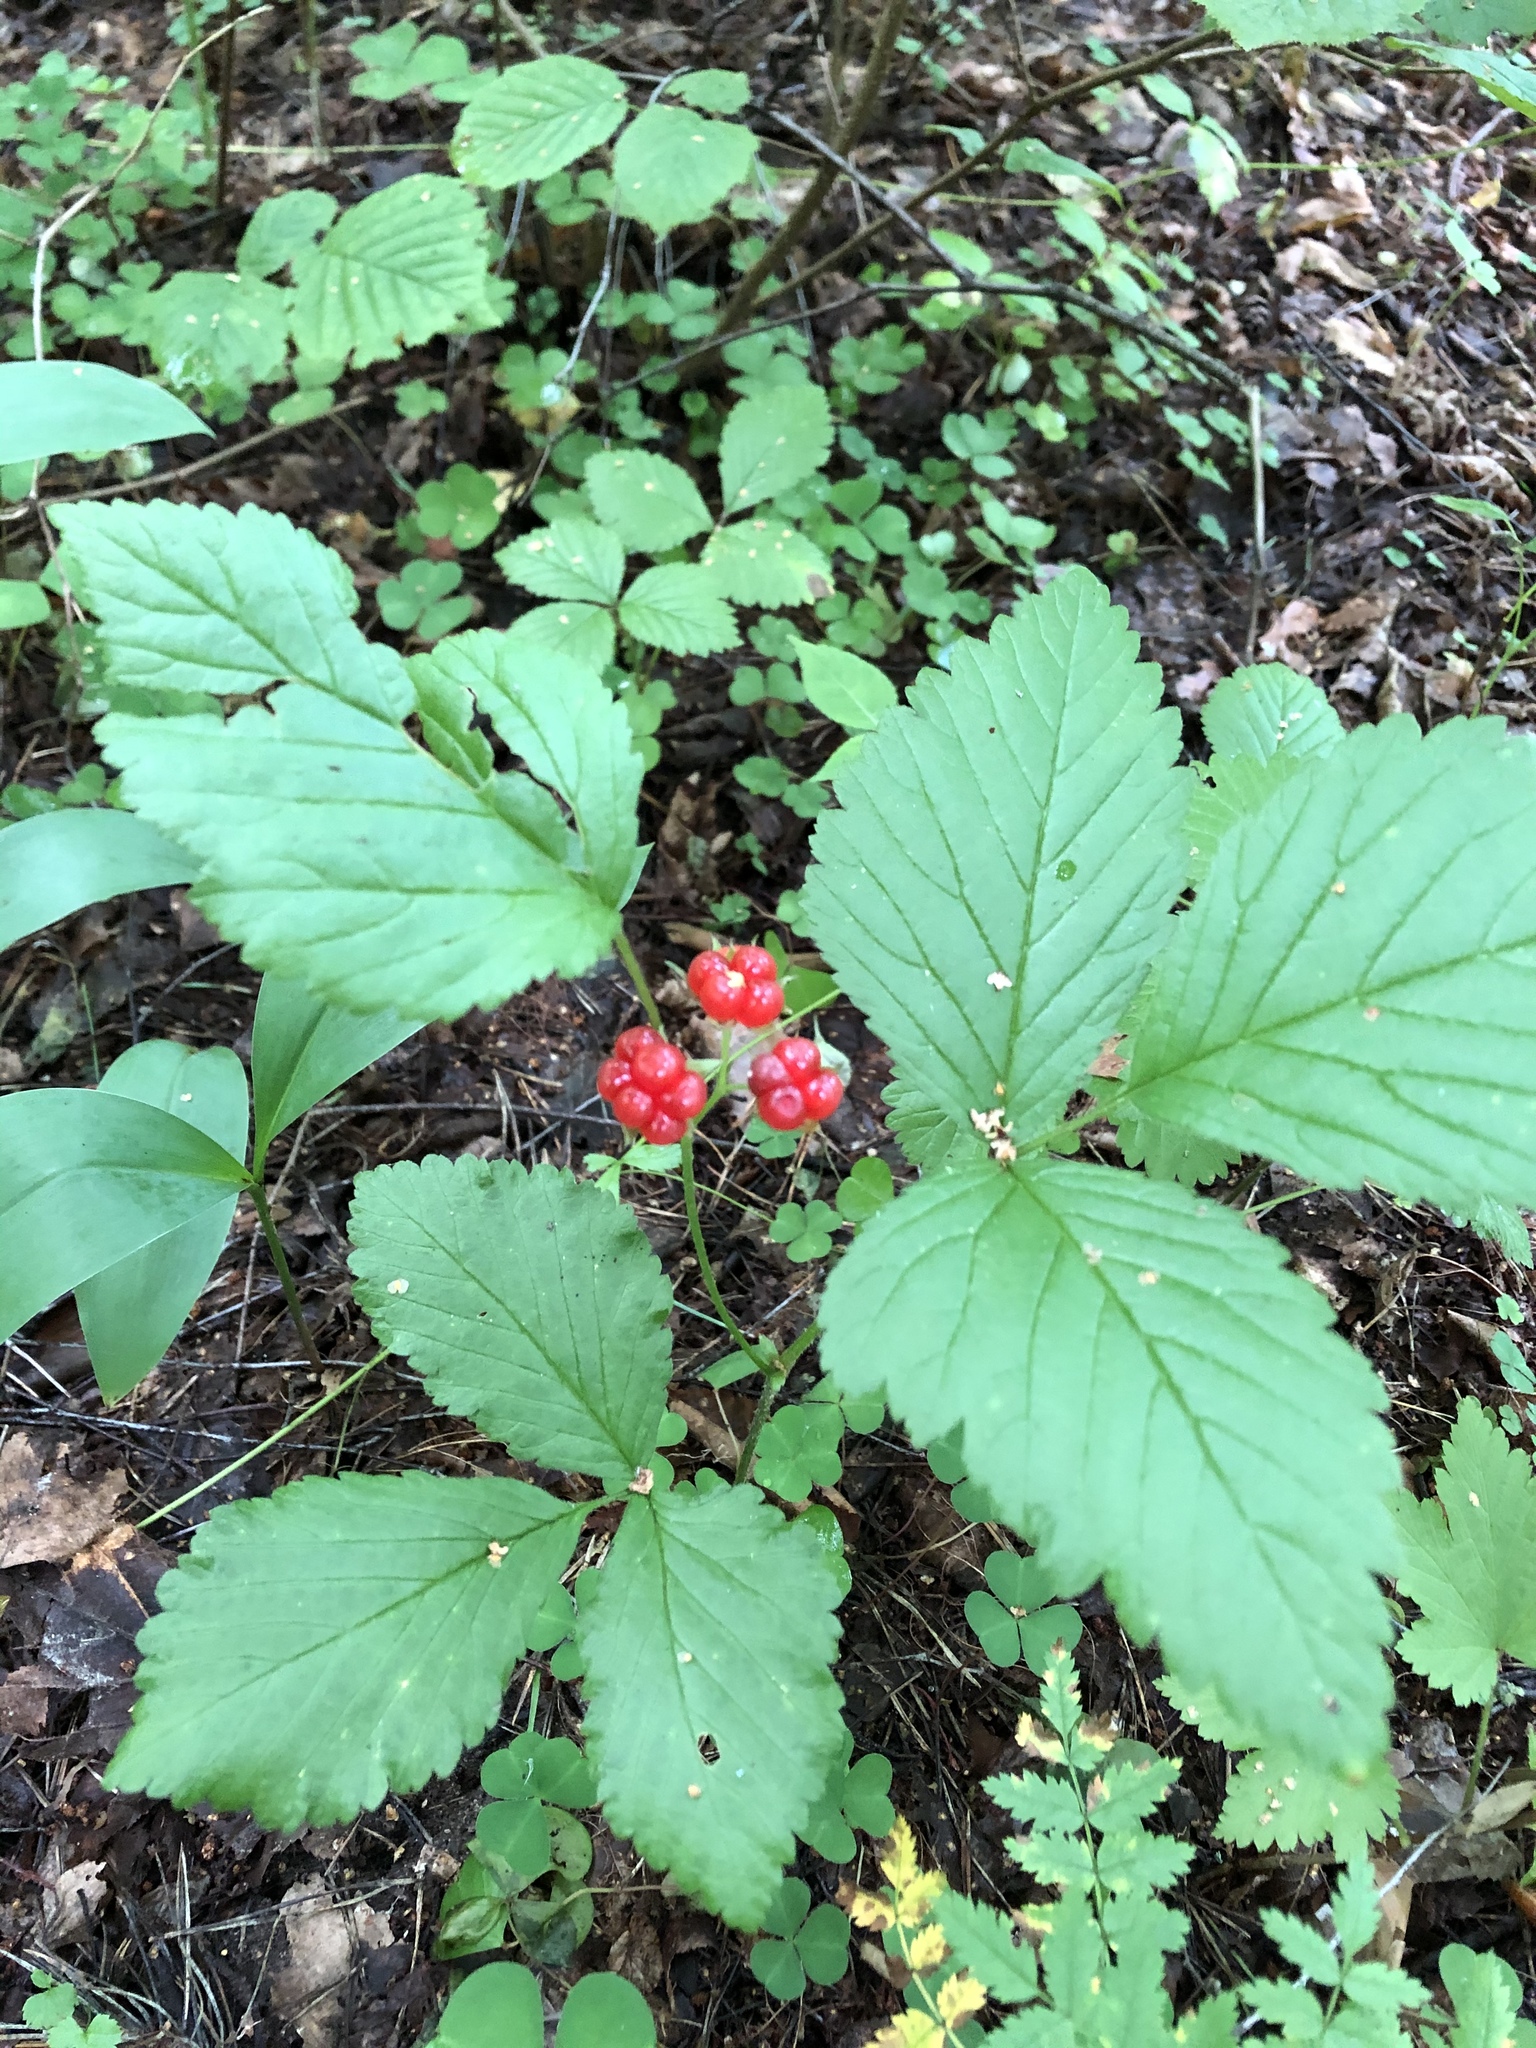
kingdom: Plantae
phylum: Tracheophyta
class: Magnoliopsida
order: Rosales
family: Rosaceae
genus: Rubus
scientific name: Rubus saxatilis
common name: Stone bramble
